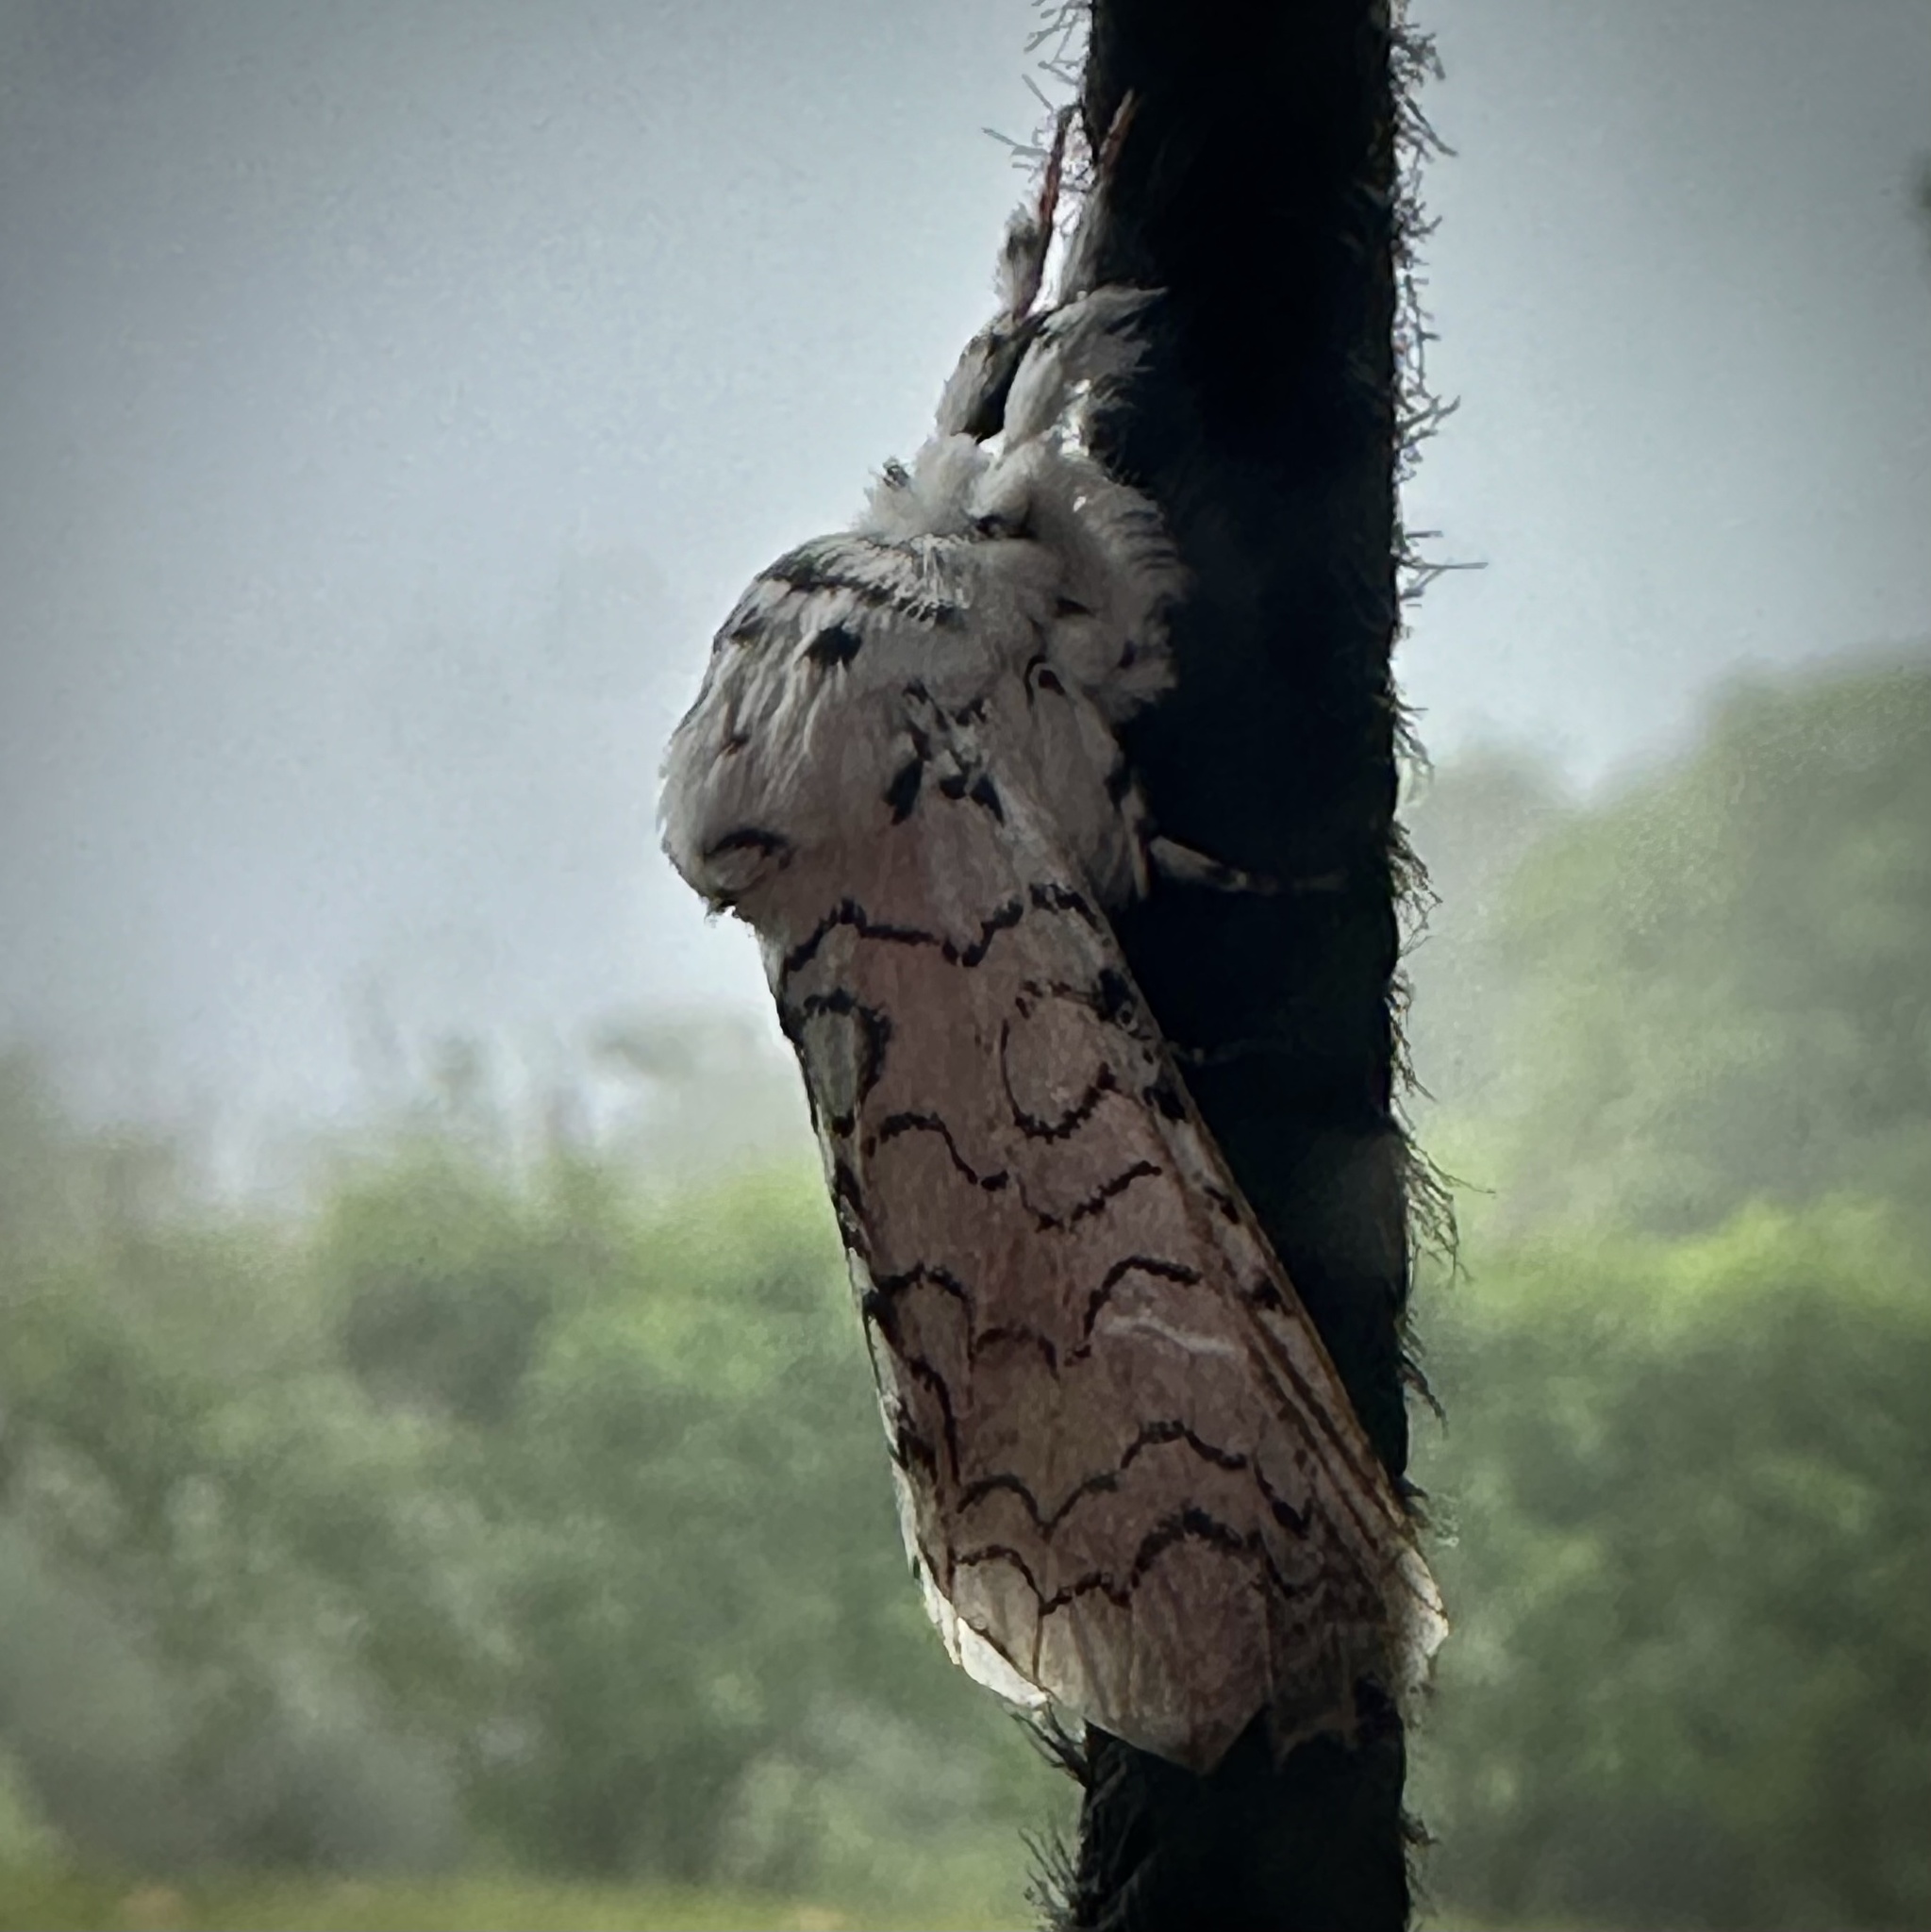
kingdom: Animalia
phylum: Arthropoda
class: Insecta
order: Lepidoptera
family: Notodontidae
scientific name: Notodontidae
